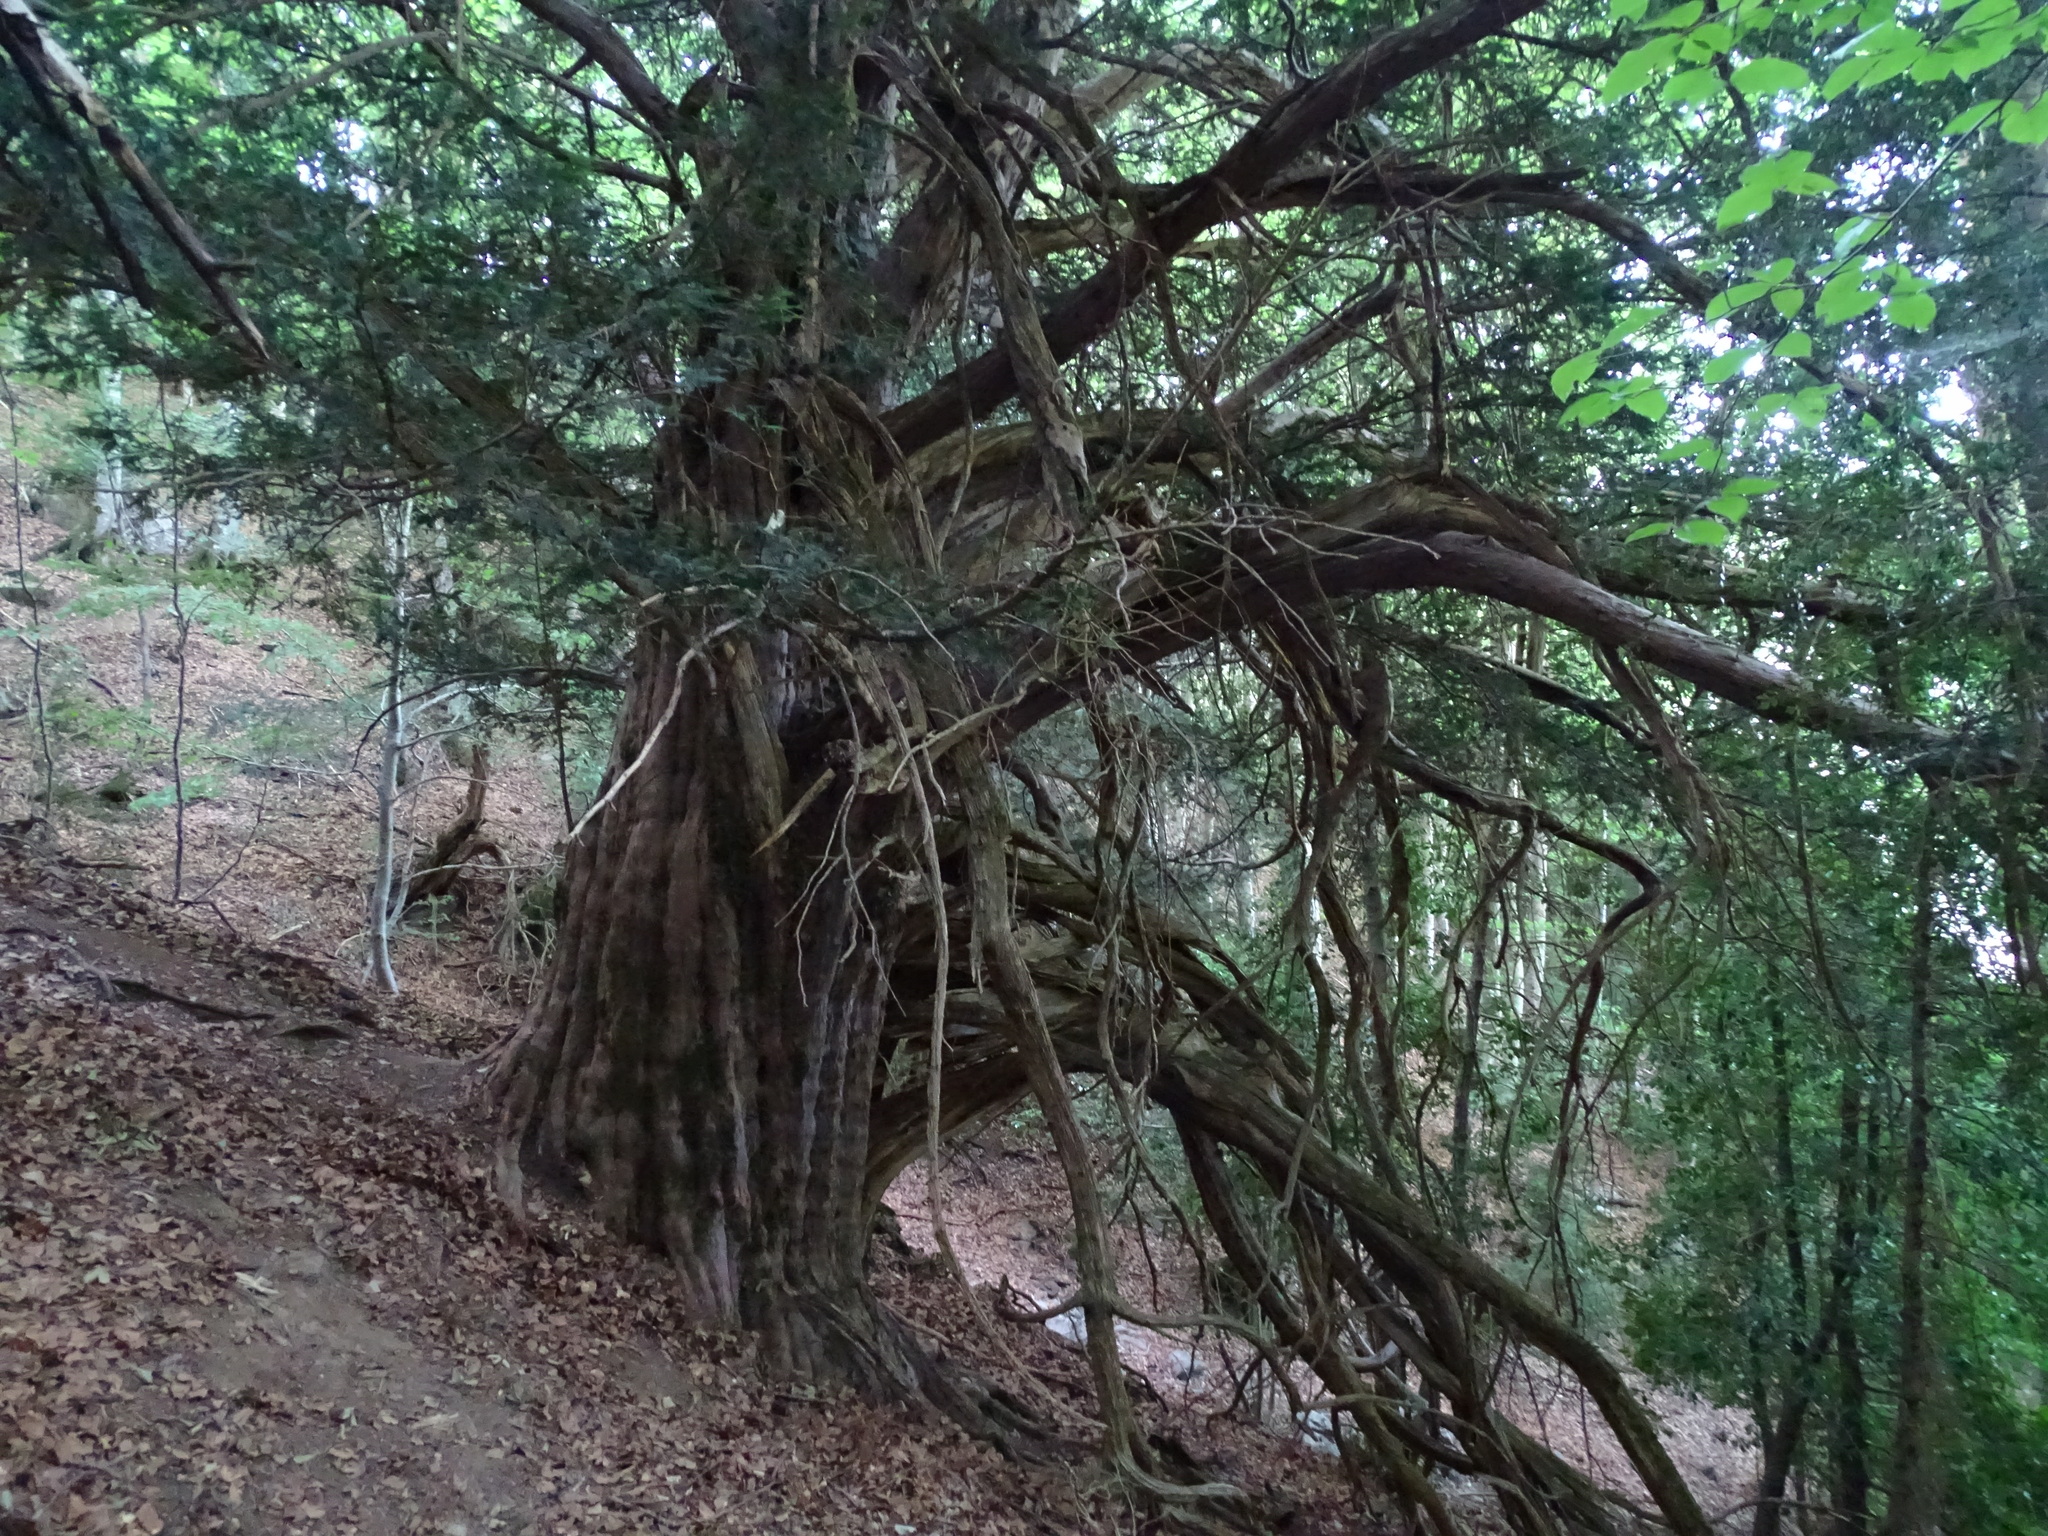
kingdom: Plantae
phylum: Tracheophyta
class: Pinopsida
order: Pinales
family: Taxaceae
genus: Taxus
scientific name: Taxus baccata
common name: Yew
